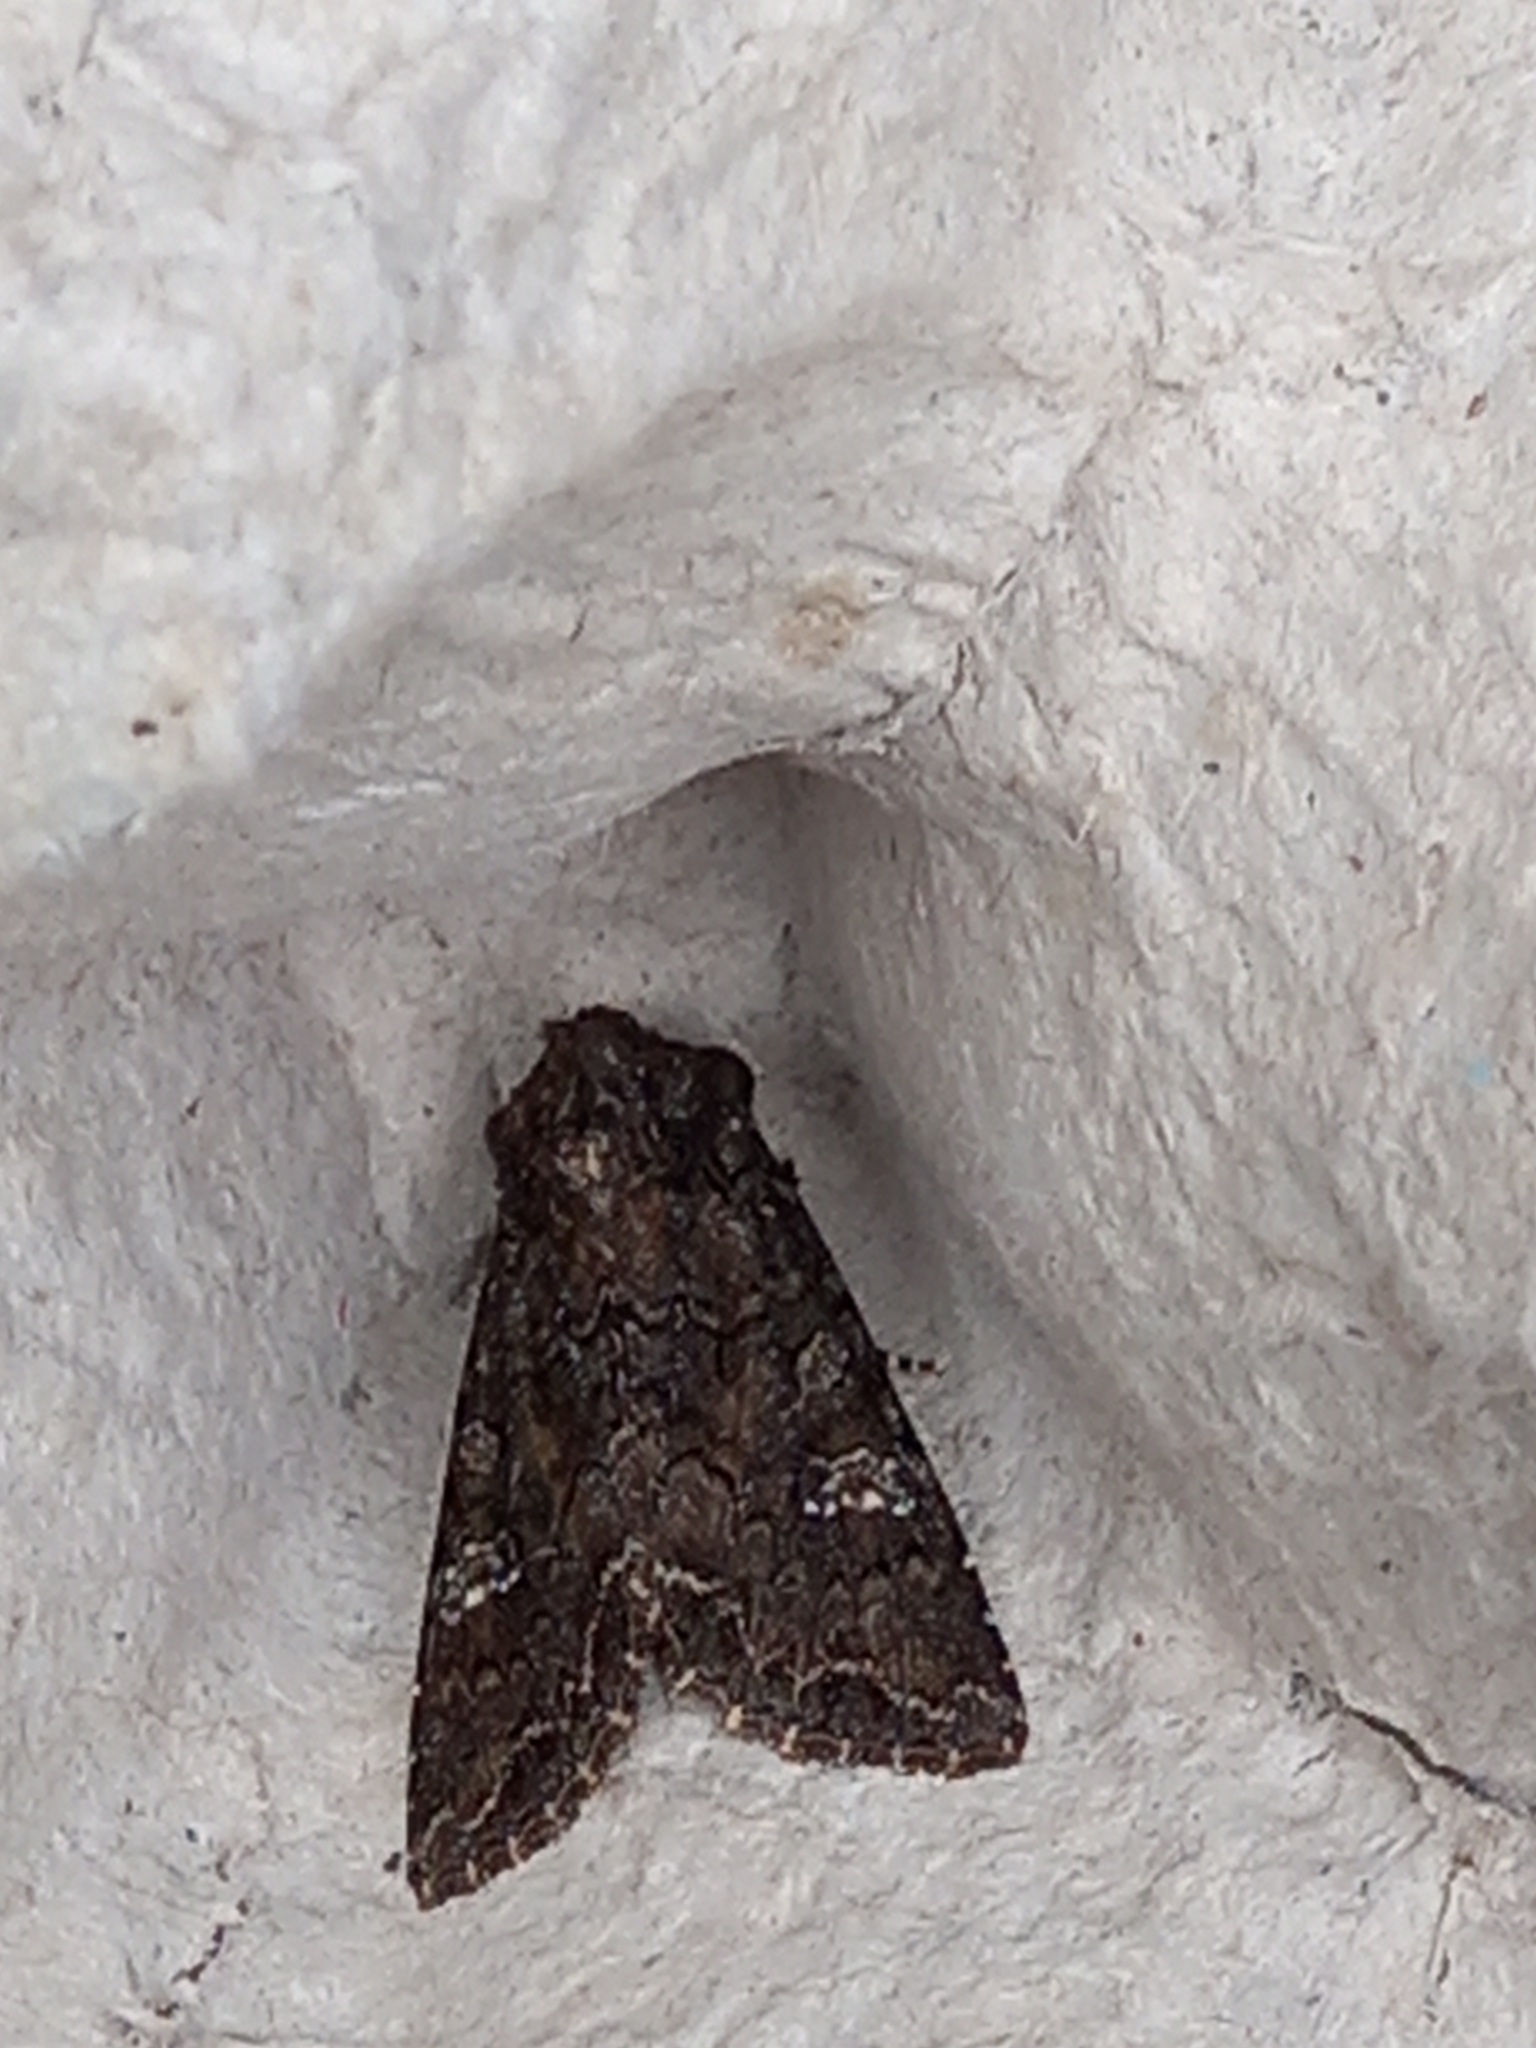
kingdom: Animalia
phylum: Arthropoda
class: Insecta
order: Lepidoptera
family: Noctuidae
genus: Mamestra
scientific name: Mamestra brassicae
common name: Cabbage moth
